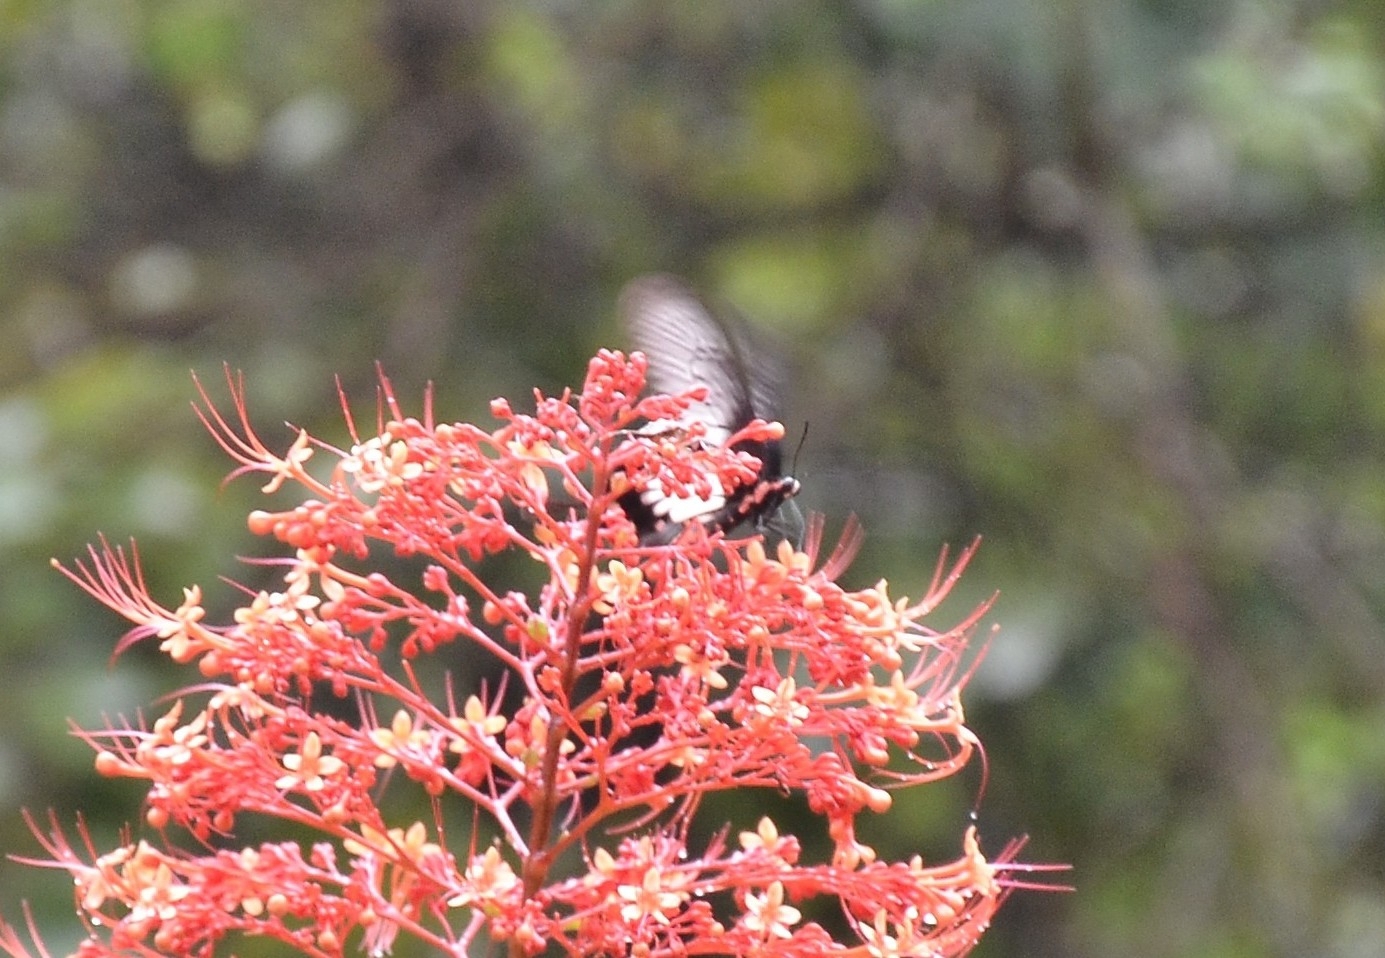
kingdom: Animalia
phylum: Arthropoda
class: Insecta
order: Lepidoptera
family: Papilionidae
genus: Pachliopta
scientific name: Pachliopta pandiyana
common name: Malabar rose
